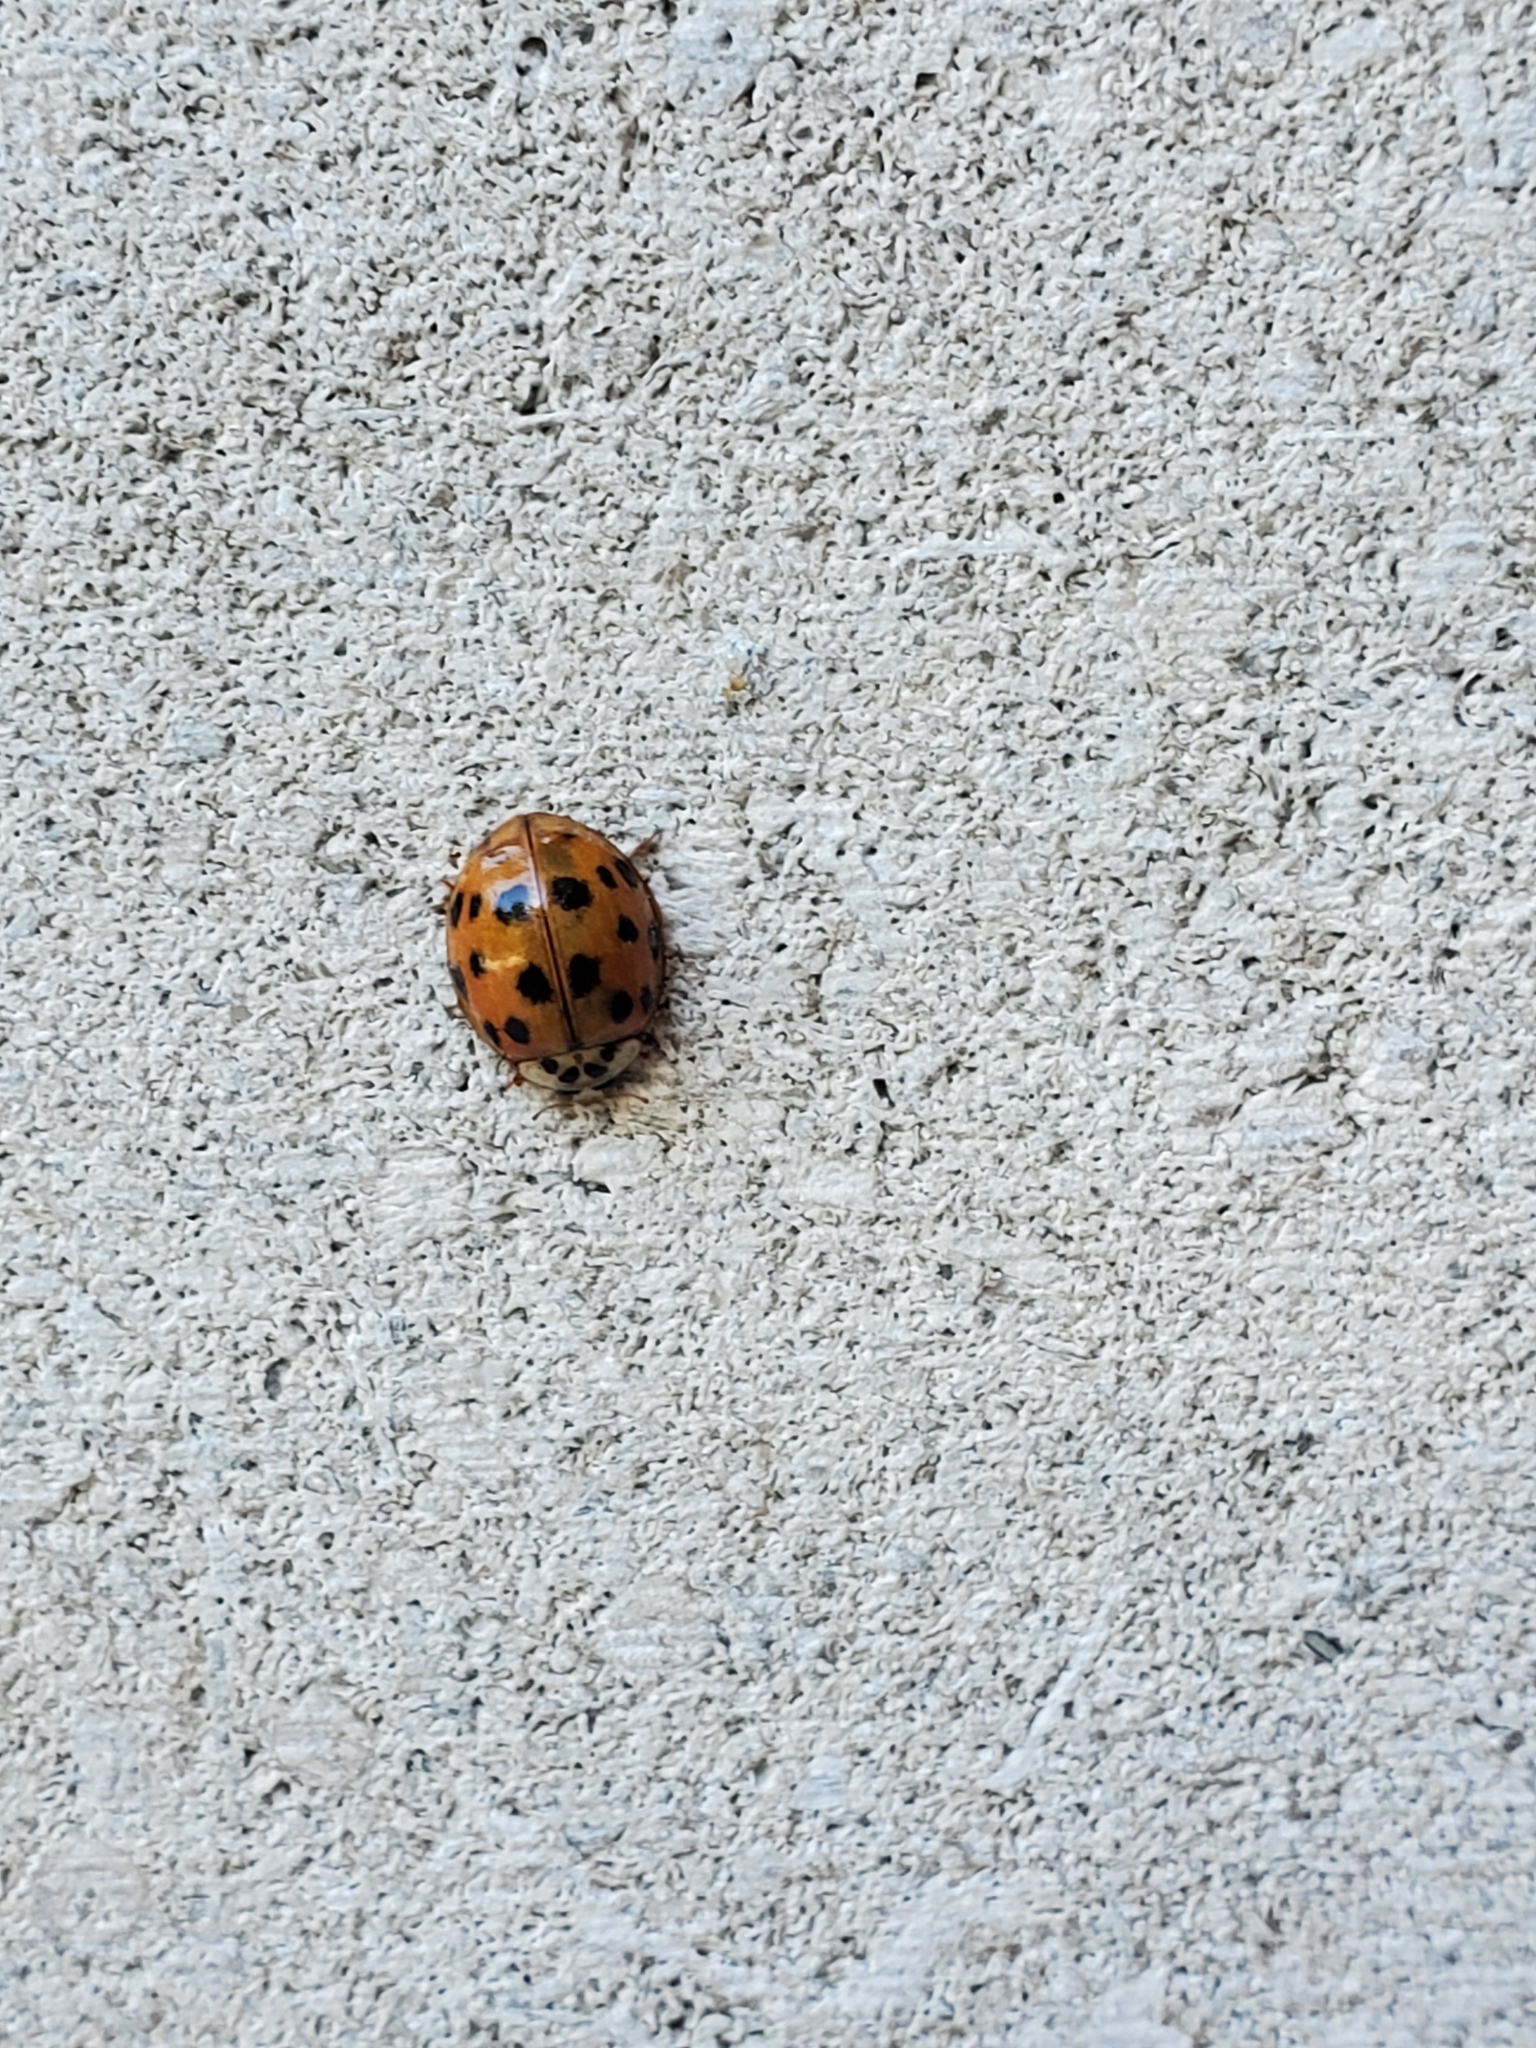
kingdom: Animalia
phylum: Arthropoda
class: Insecta
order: Coleoptera
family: Coccinellidae
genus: Harmonia
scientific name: Harmonia axyridis
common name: Harlequin ladybird
